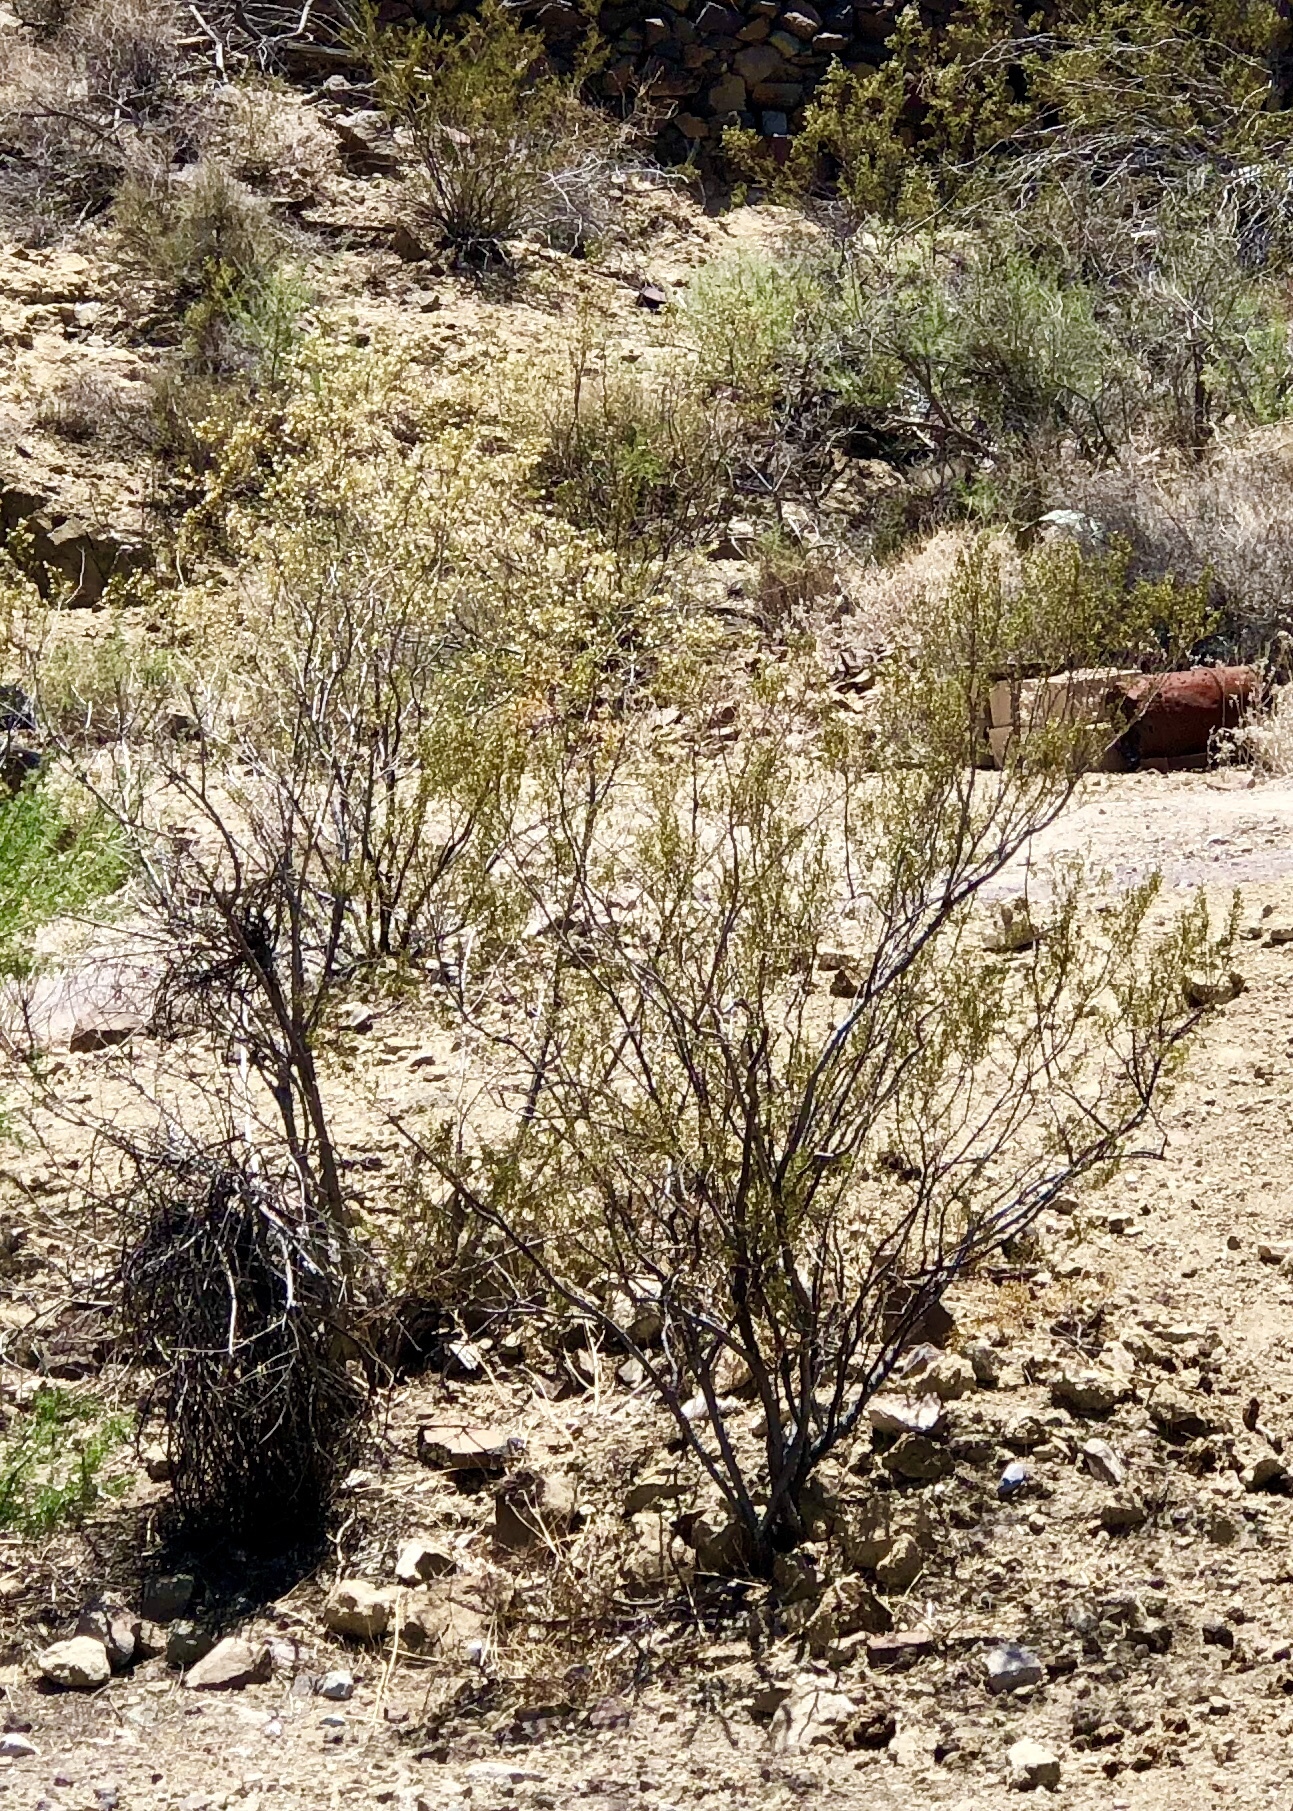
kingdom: Plantae
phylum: Tracheophyta
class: Magnoliopsida
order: Zygophyllales
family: Zygophyllaceae
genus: Larrea
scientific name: Larrea tridentata
